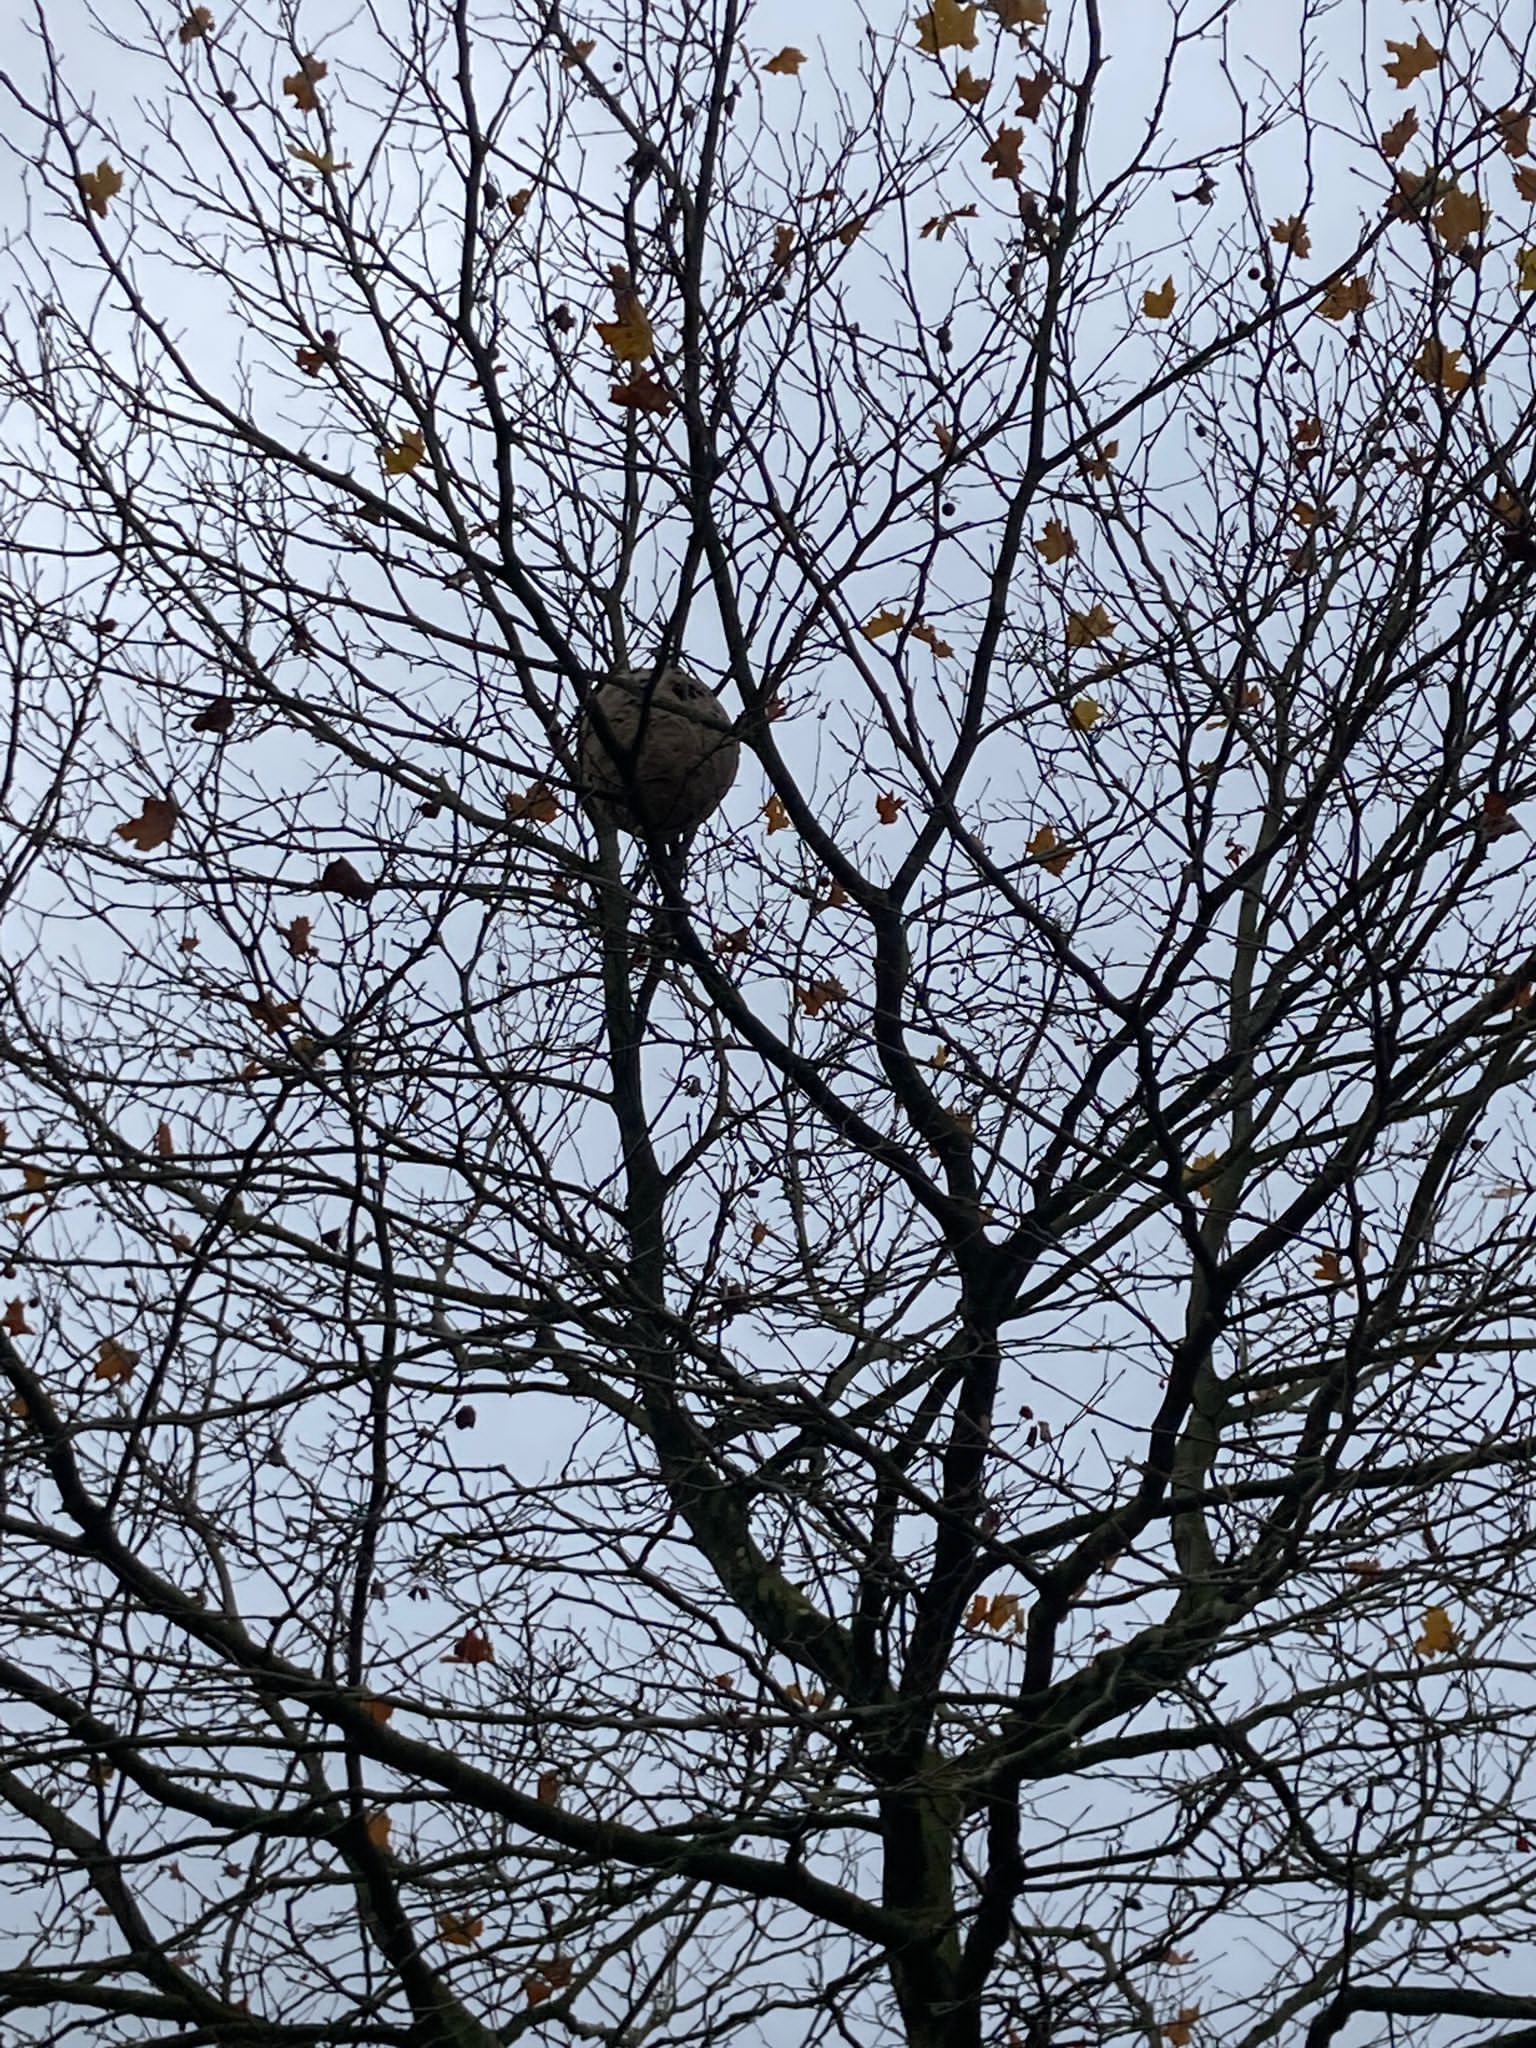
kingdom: Animalia
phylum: Arthropoda
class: Insecta
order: Hymenoptera
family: Vespidae
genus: Vespa
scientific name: Vespa velutina
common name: Asian hornet
